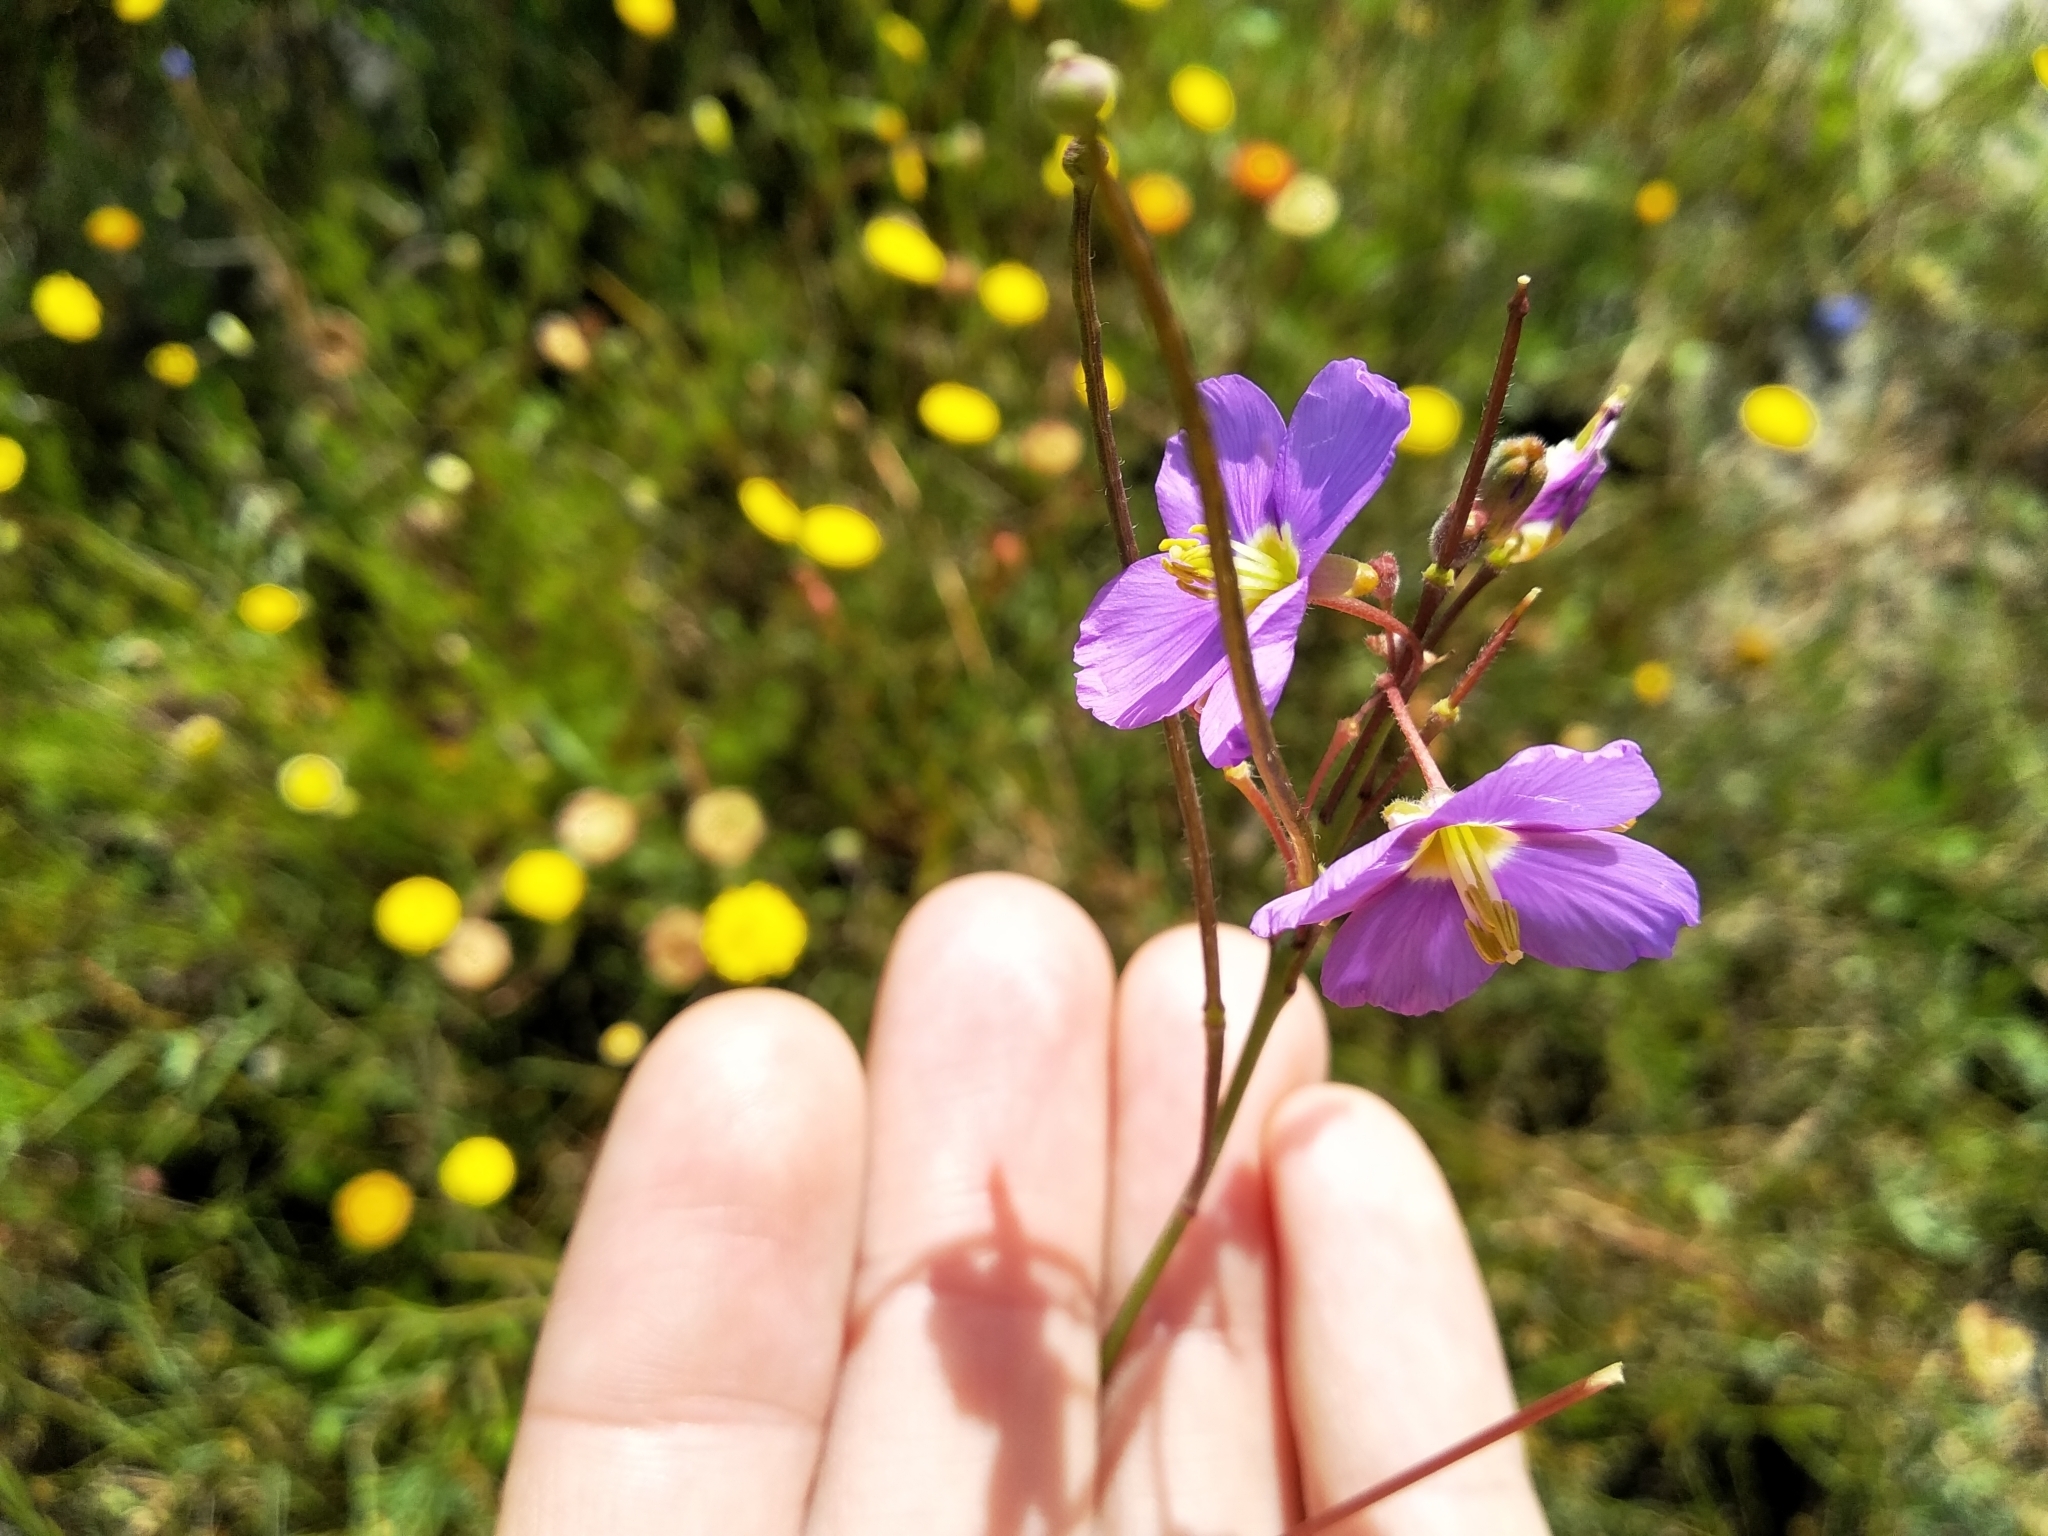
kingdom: Plantae
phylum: Tracheophyta
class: Magnoliopsida
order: Brassicales
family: Brassicaceae
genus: Heliophila
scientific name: Heliophila africana
